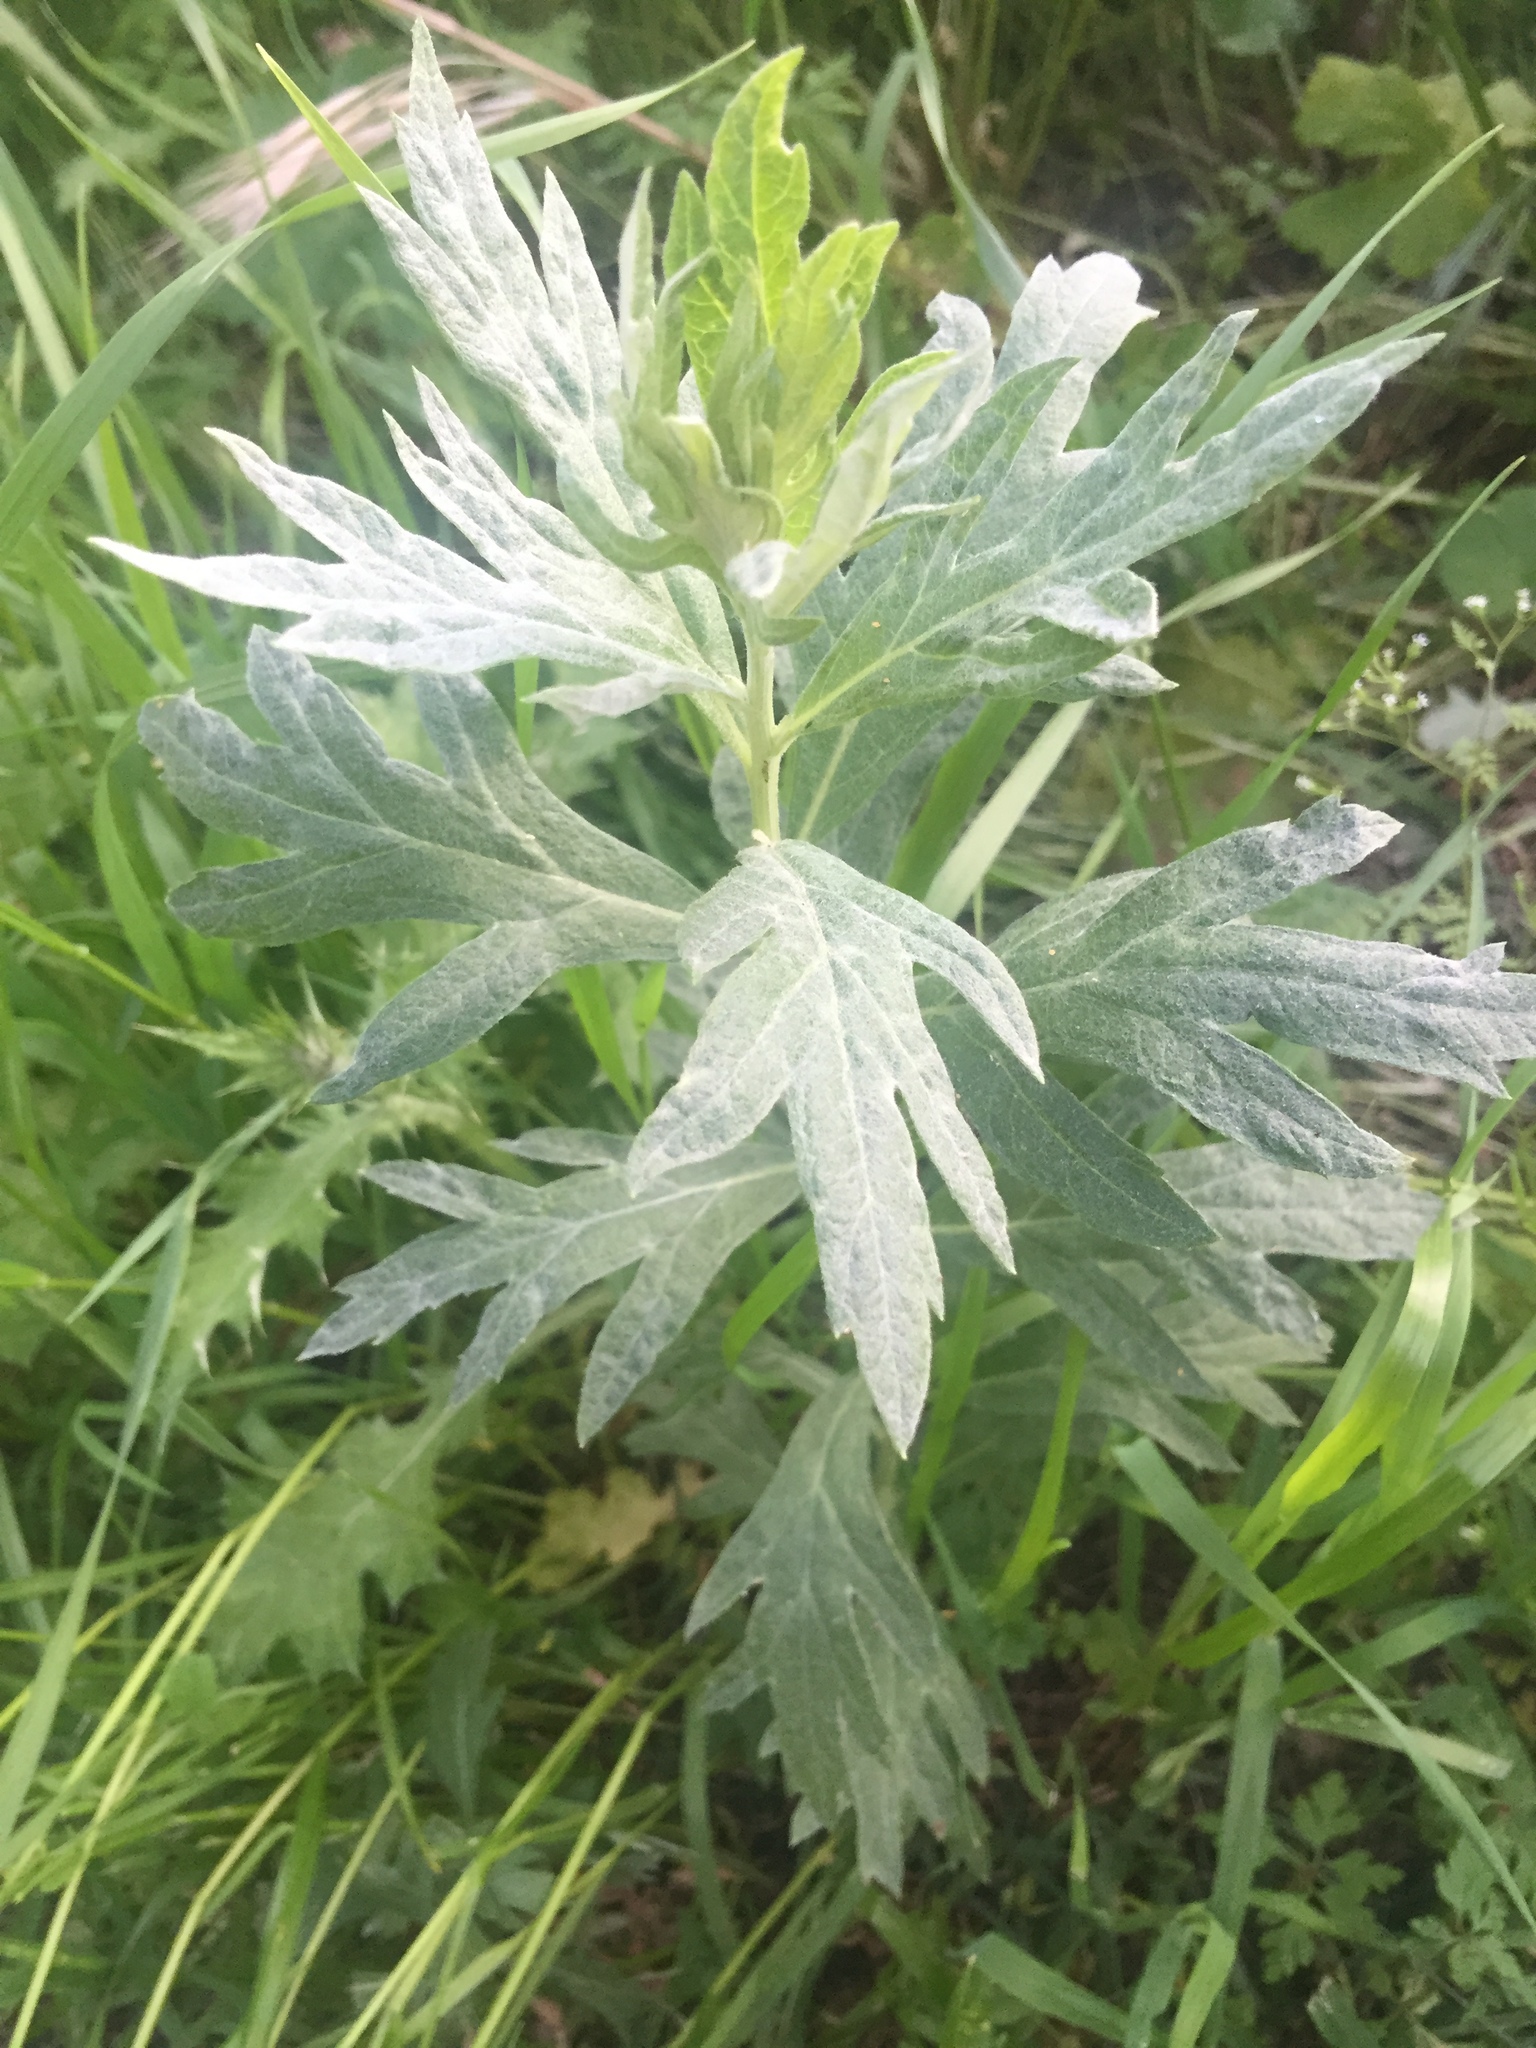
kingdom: Plantae
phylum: Tracheophyta
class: Magnoliopsida
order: Asterales
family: Asteraceae
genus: Artemisia
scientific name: Artemisia douglasiana
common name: Northwest mugwort
